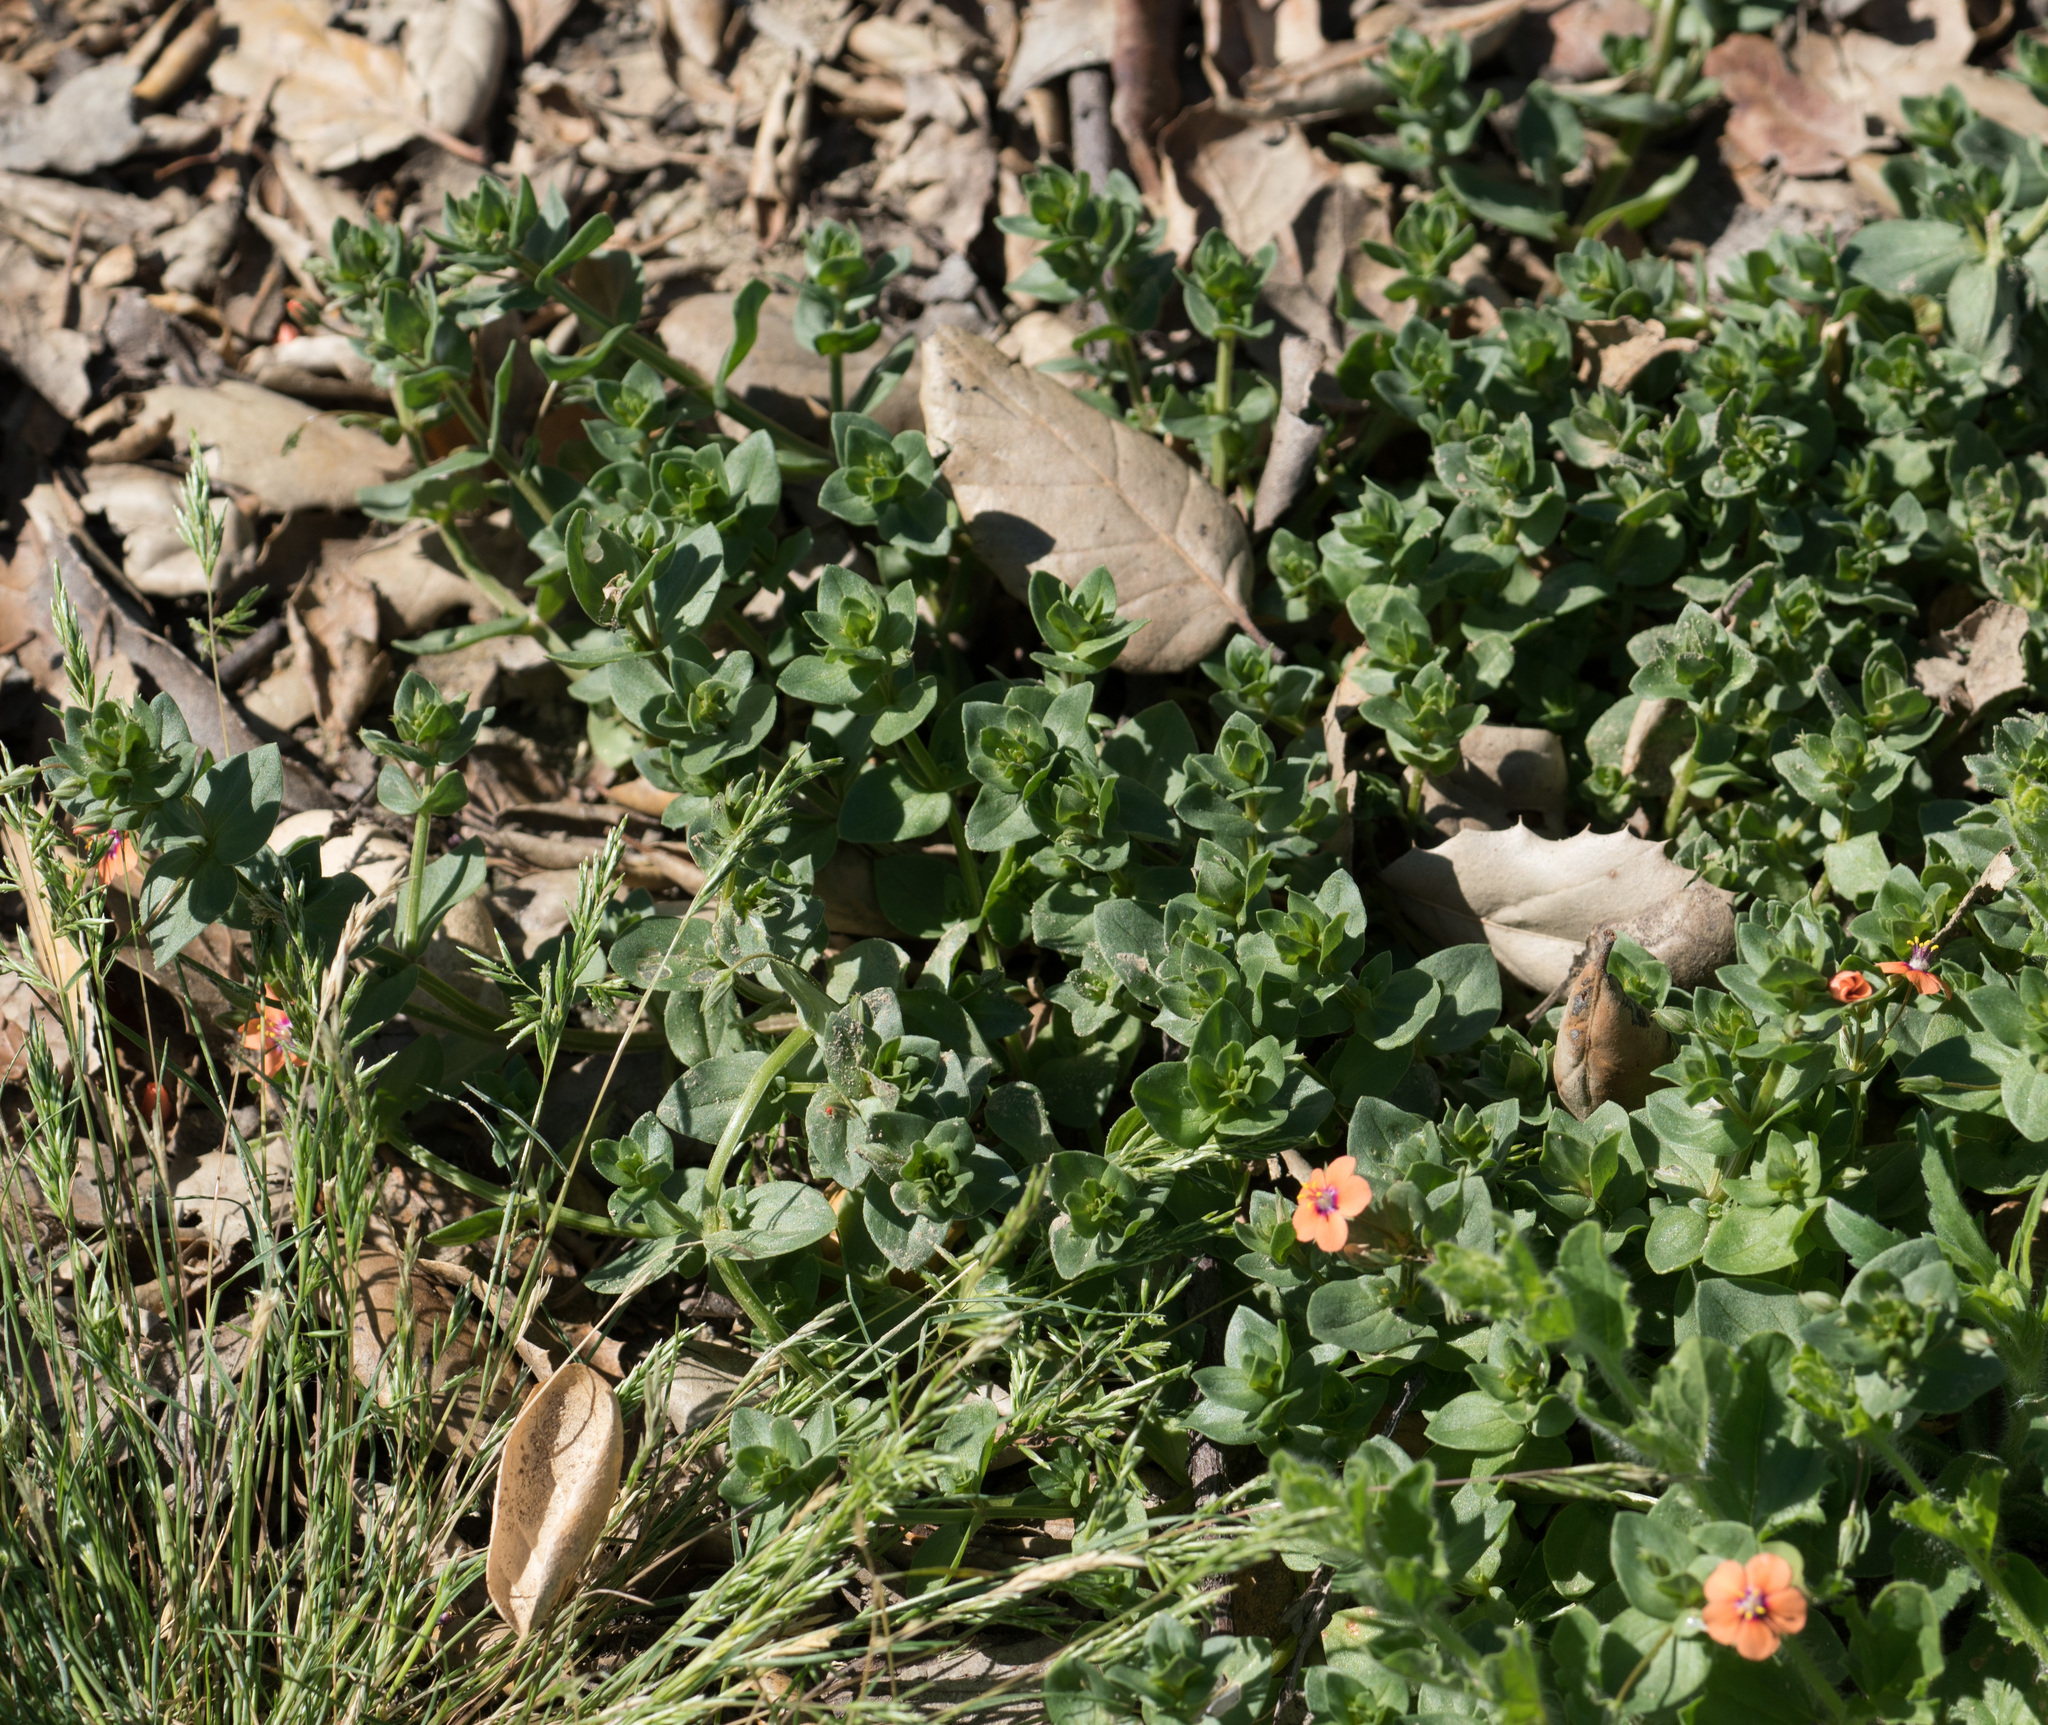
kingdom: Plantae
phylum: Tracheophyta
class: Magnoliopsida
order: Ericales
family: Primulaceae
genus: Lysimachia
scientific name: Lysimachia arvensis
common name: Scarlet pimpernel
